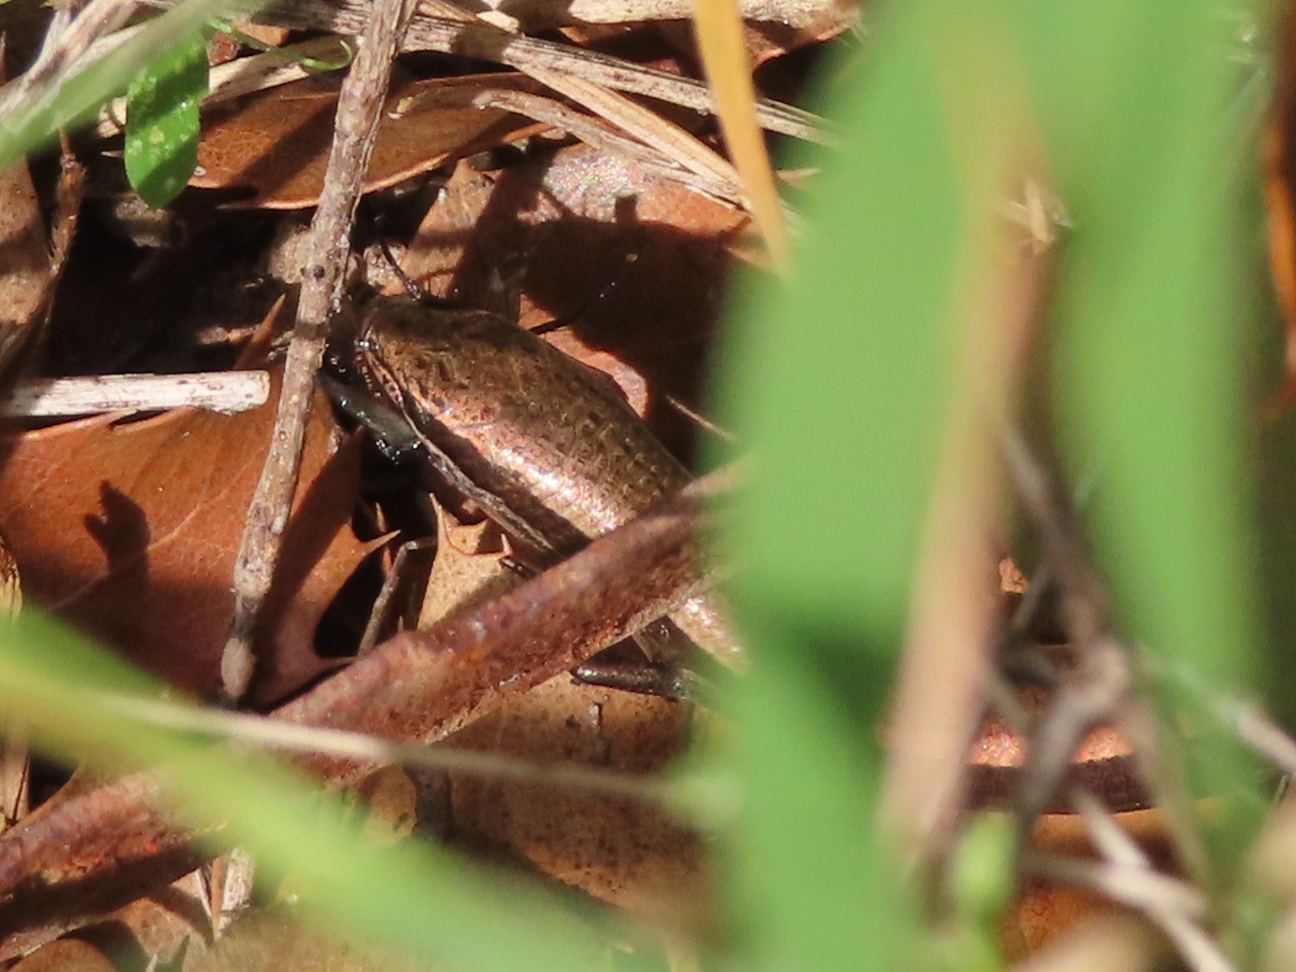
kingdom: Animalia
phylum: Chordata
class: Squamata
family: Scincidae
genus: Ablepharus
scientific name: Ablepharus kitaibelii
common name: Juniper skink
